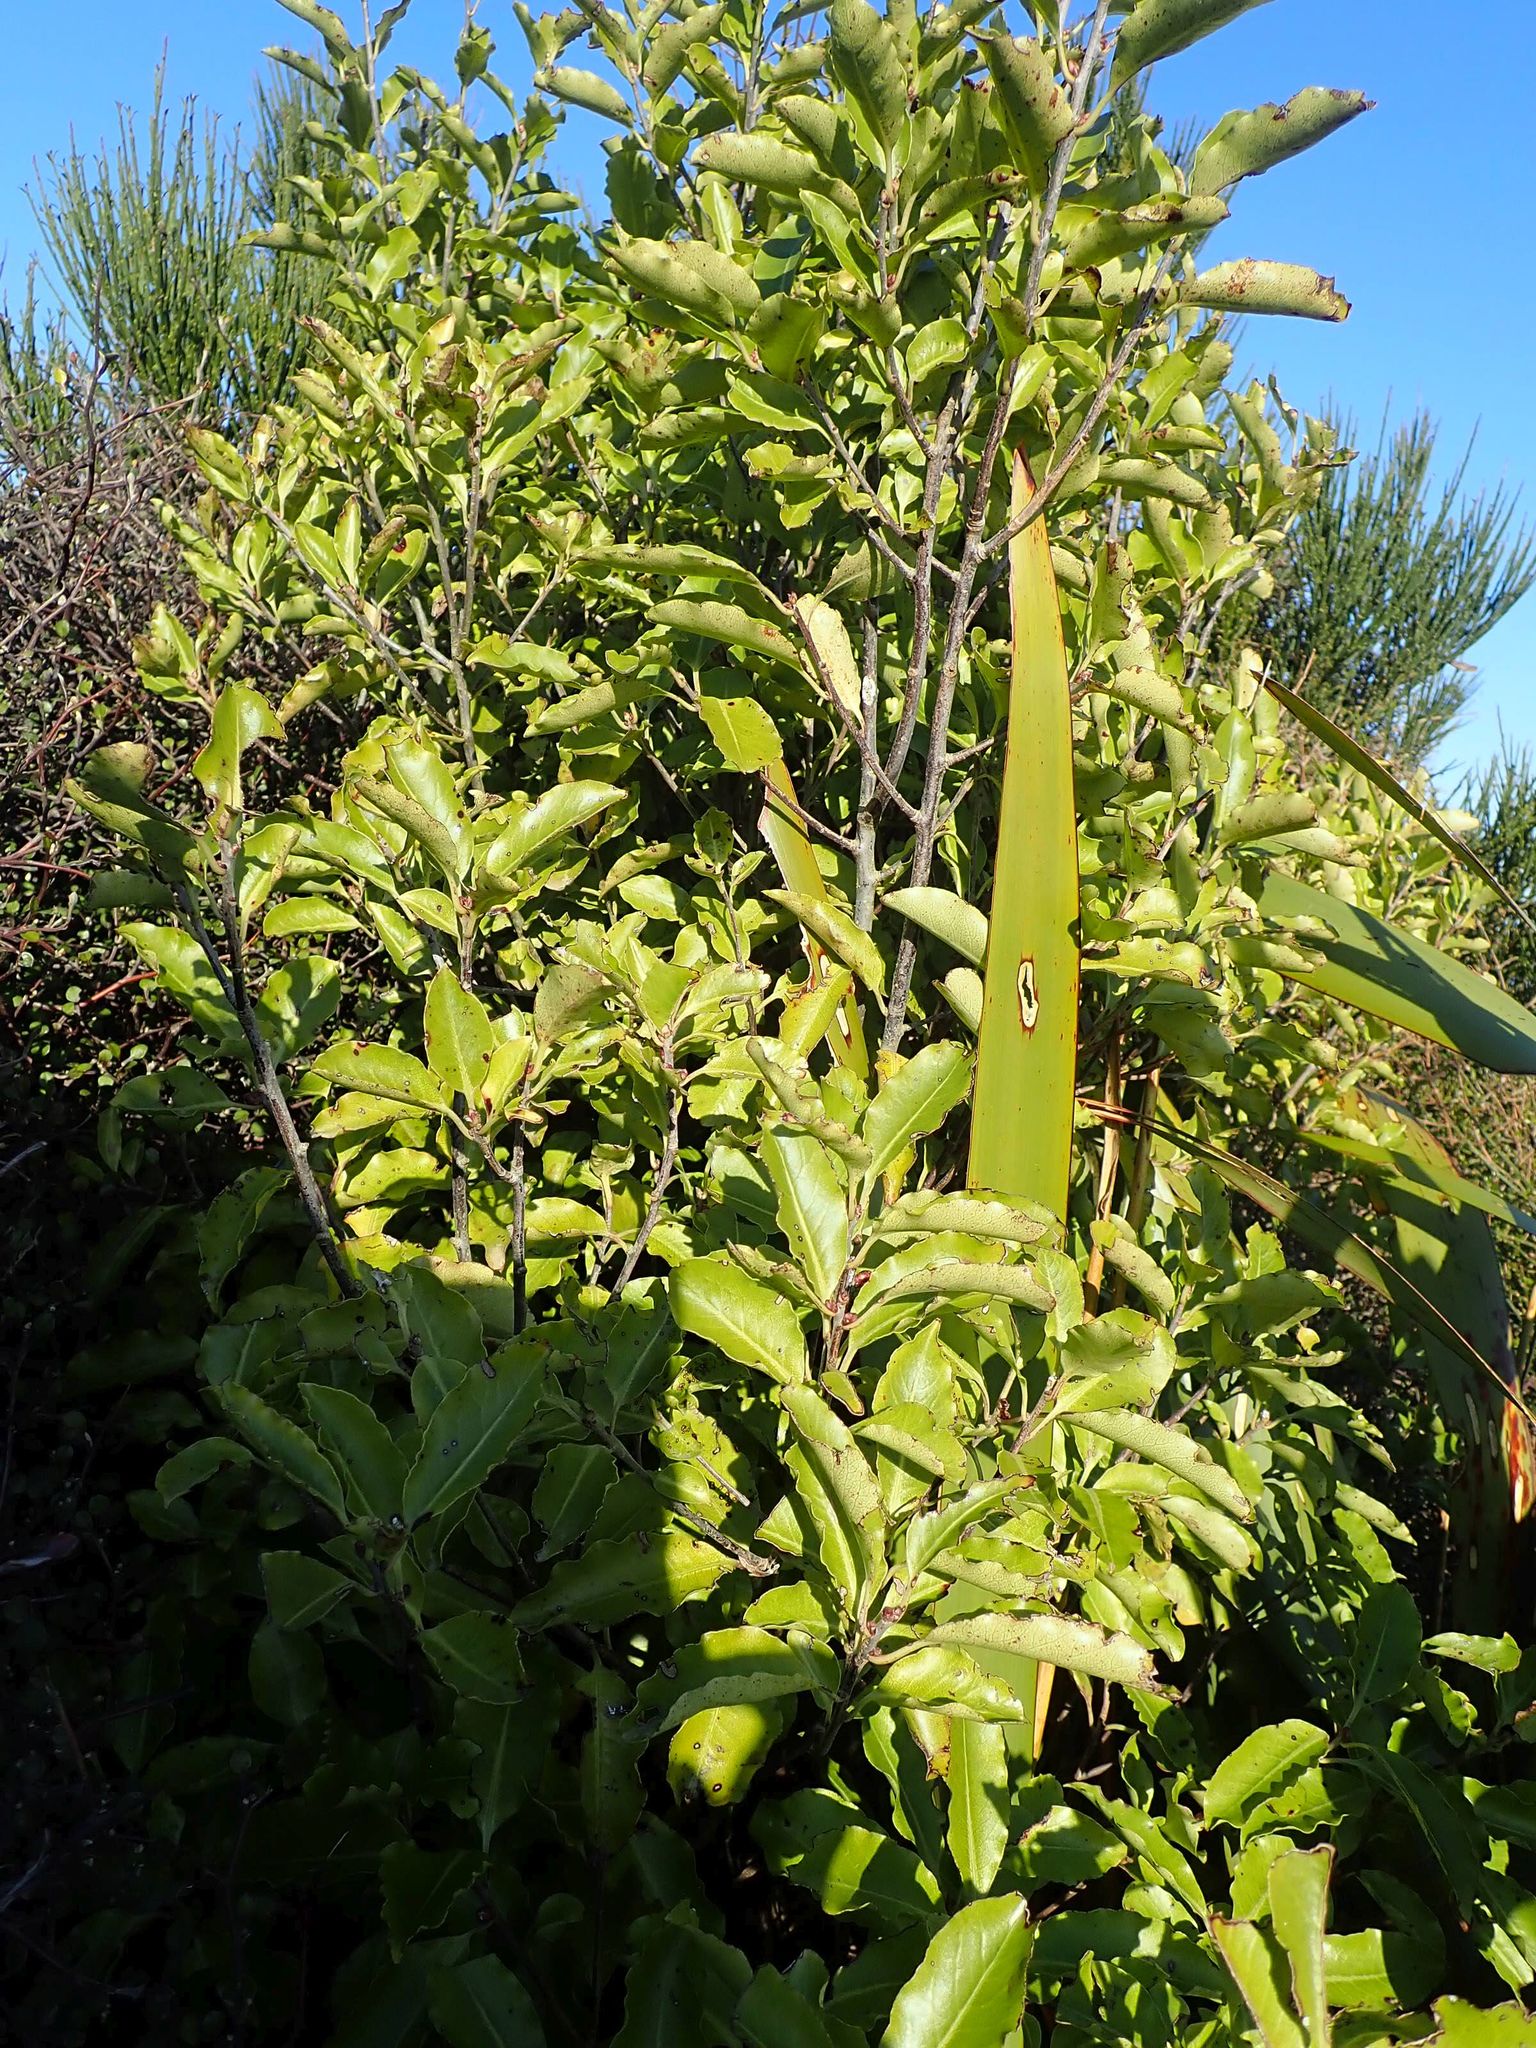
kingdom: Plantae
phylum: Tracheophyta
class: Magnoliopsida
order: Apiales
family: Pittosporaceae
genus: Pittosporum
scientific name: Pittosporum tenuifolium
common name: Kohuhu
